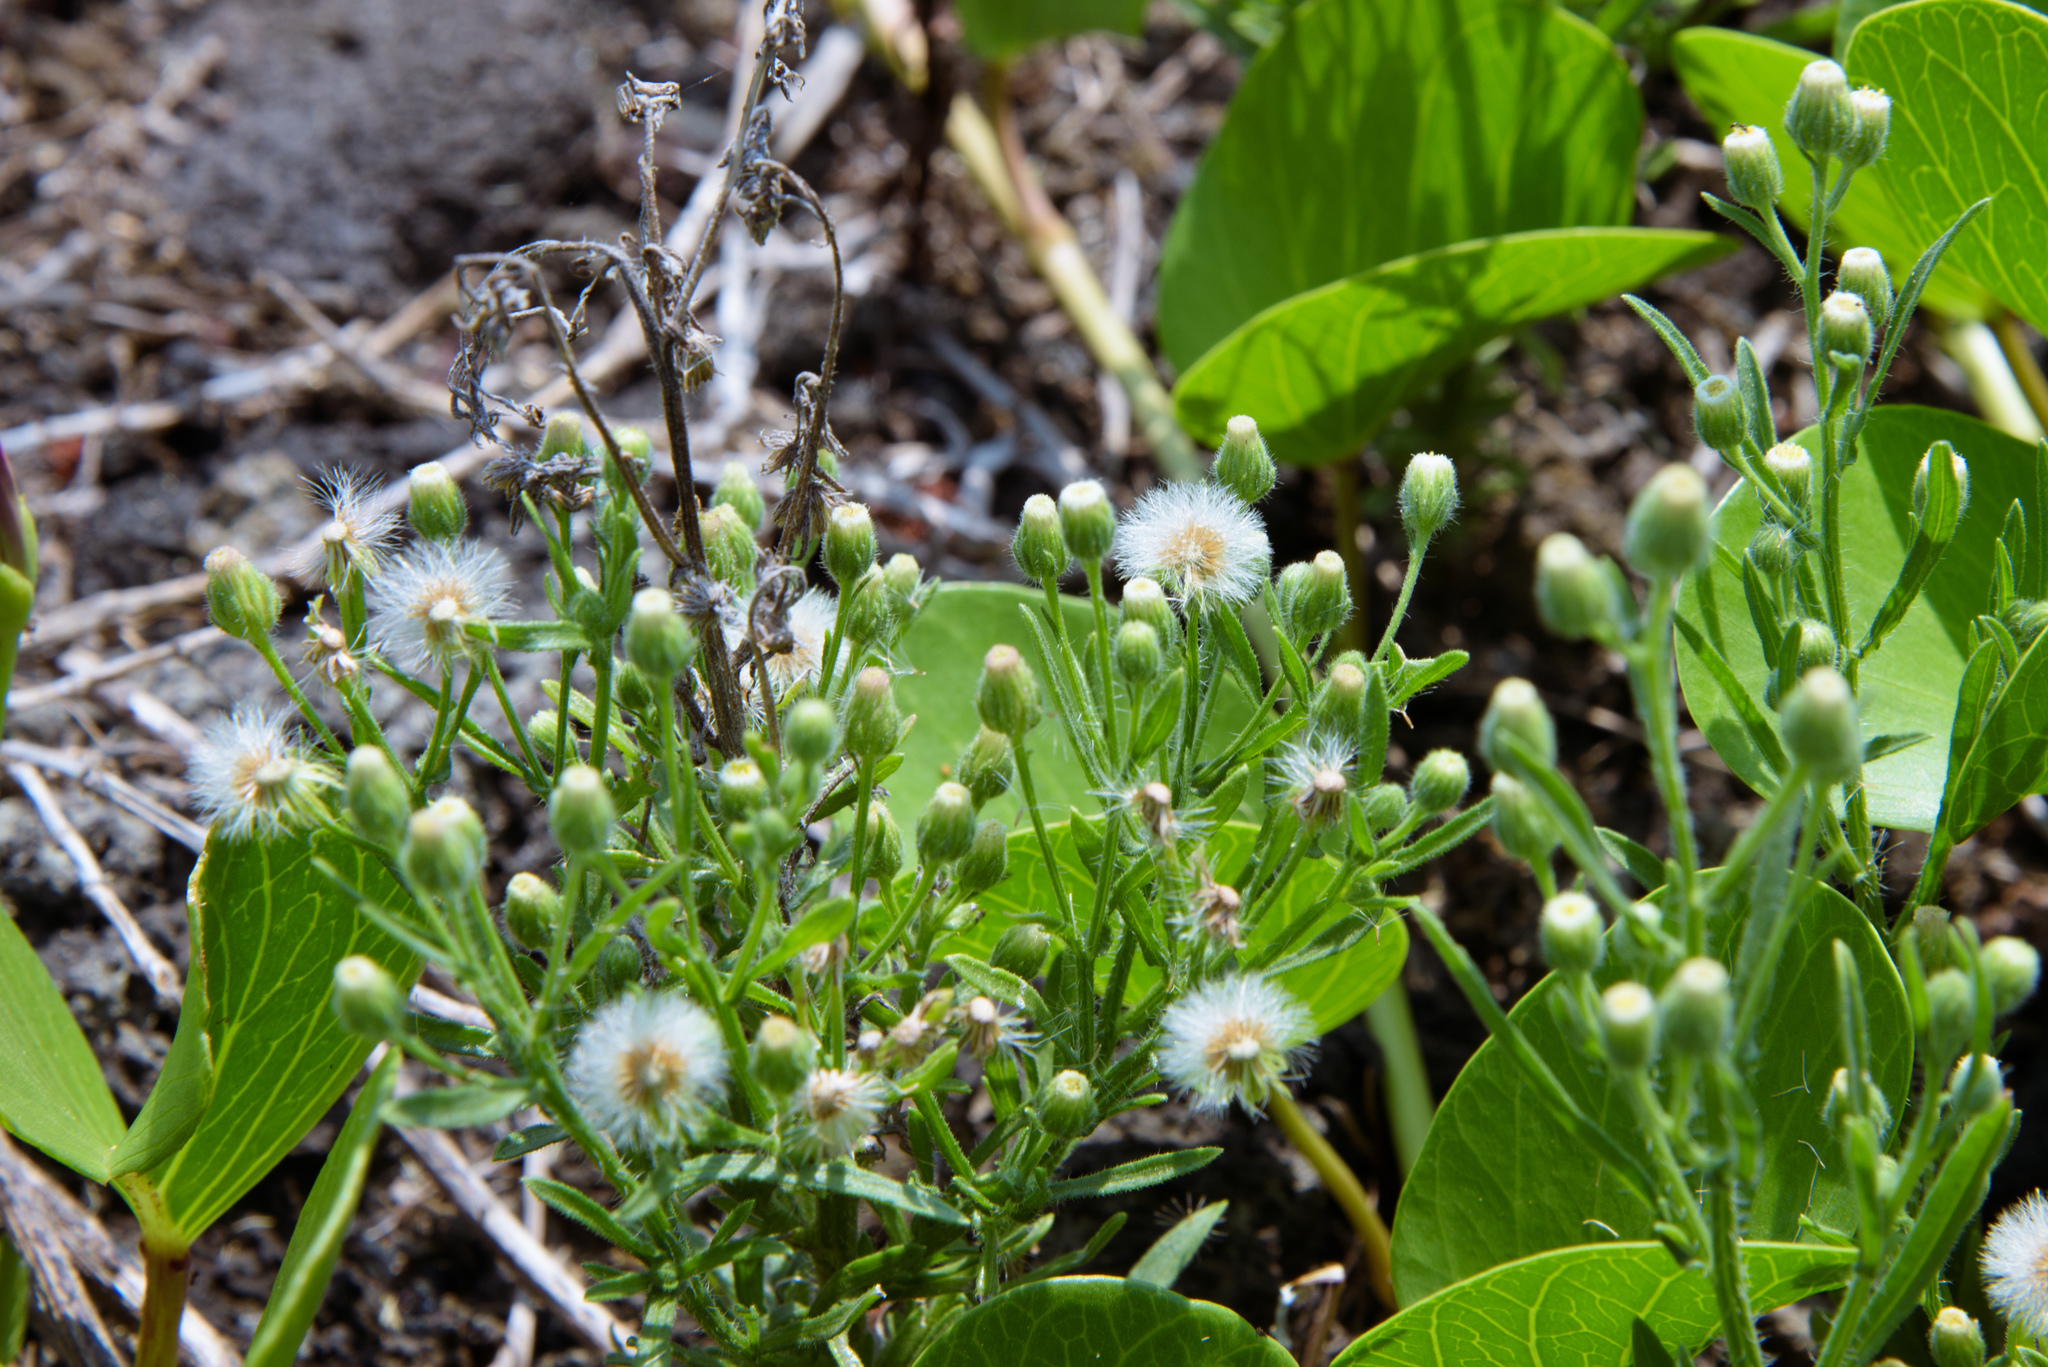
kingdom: Plantae
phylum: Tracheophyta
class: Magnoliopsida
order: Asterales
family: Asteraceae
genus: Erigeron
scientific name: Erigeron bonariensis
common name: Argentine fleabane
